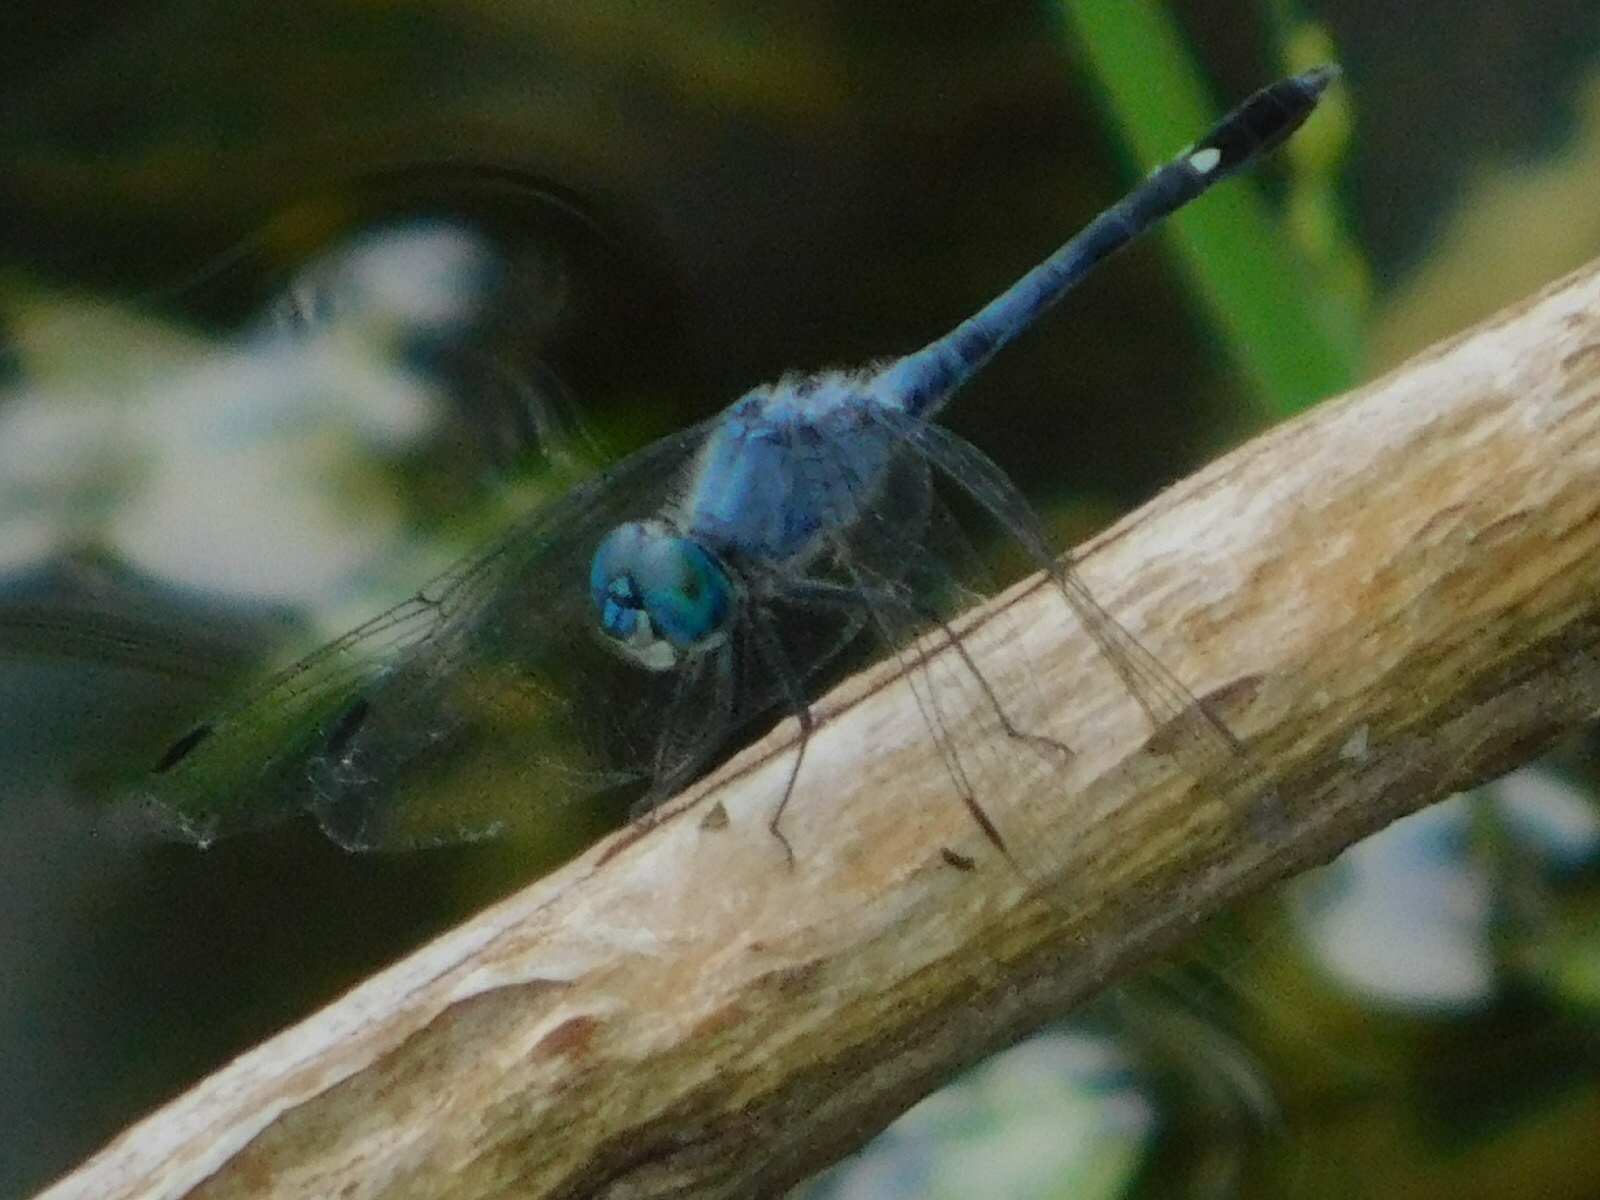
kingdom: Animalia
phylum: Arthropoda
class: Insecta
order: Odonata
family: Libellulidae
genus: Micrathyria
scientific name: Micrathyria aequalis
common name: Spot-tailed dasher
